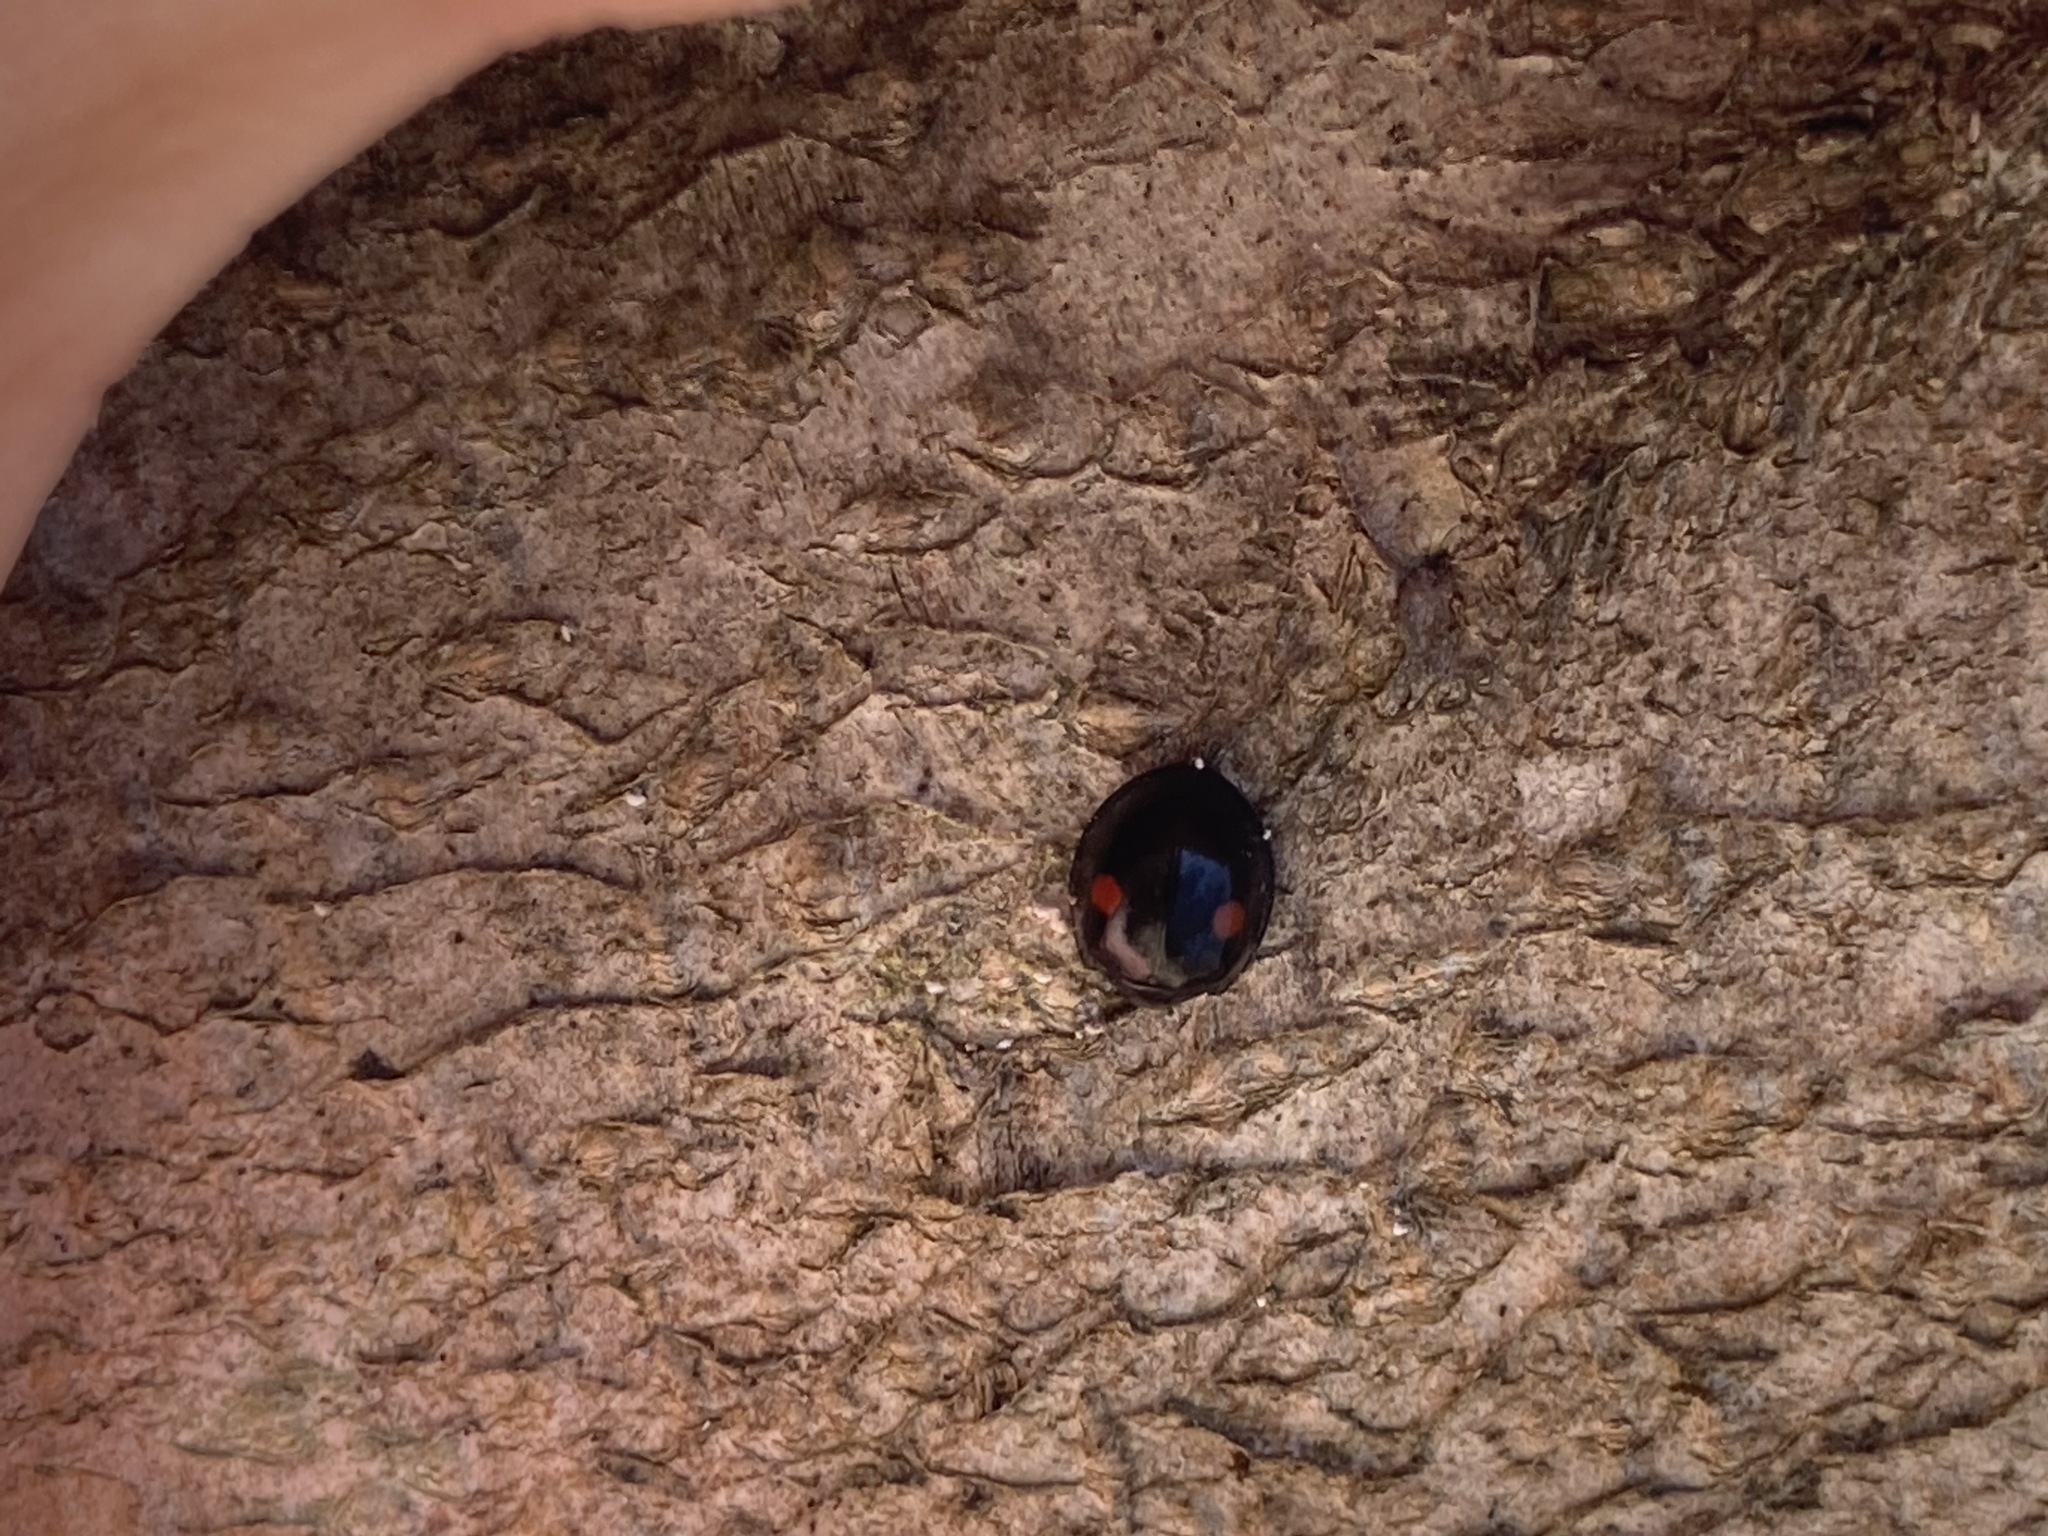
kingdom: Animalia
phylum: Arthropoda
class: Insecta
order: Coleoptera
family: Coccinellidae
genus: Chilocorus
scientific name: Chilocorus stigma
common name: Twicestabbed lady beetle
